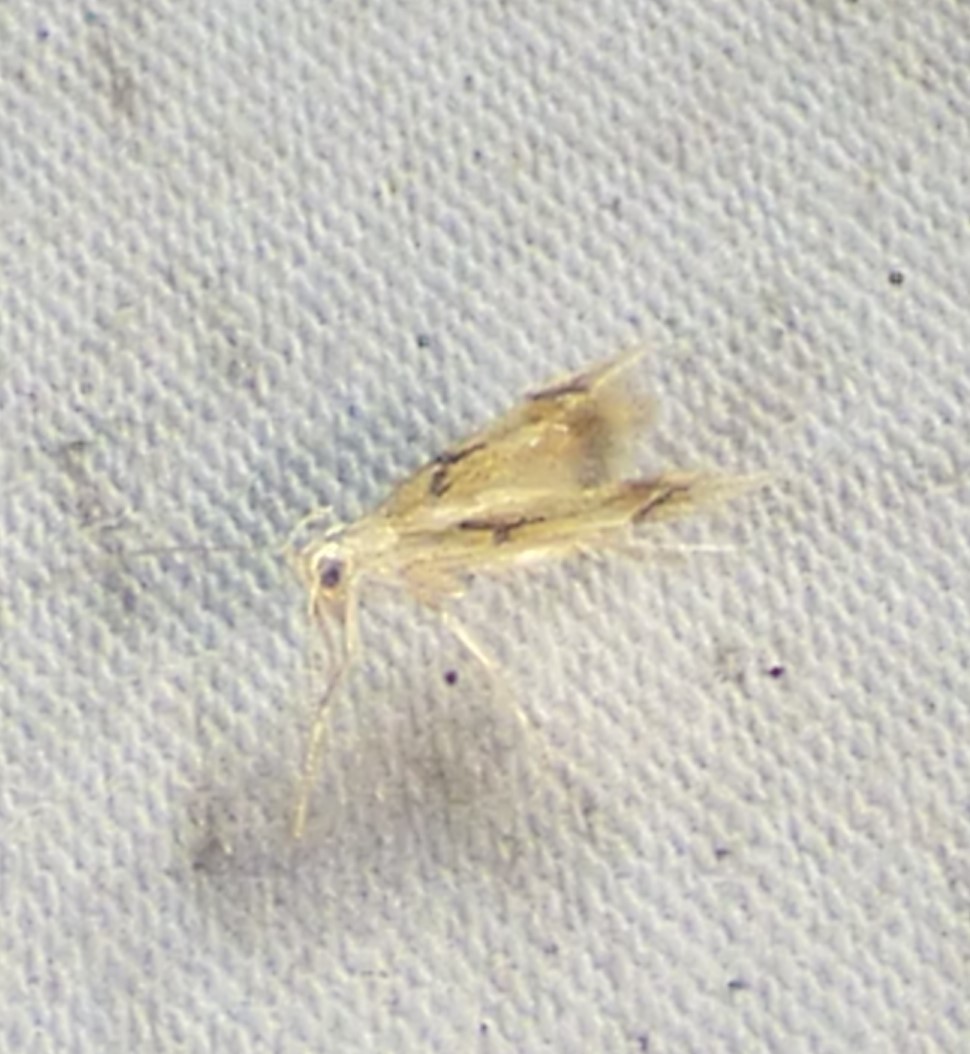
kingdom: Animalia
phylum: Arthropoda
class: Insecta
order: Lepidoptera
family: Epimarptidae
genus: Idioglossa
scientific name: Idioglossa miraculosa
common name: Miraculous idiogloss moth
